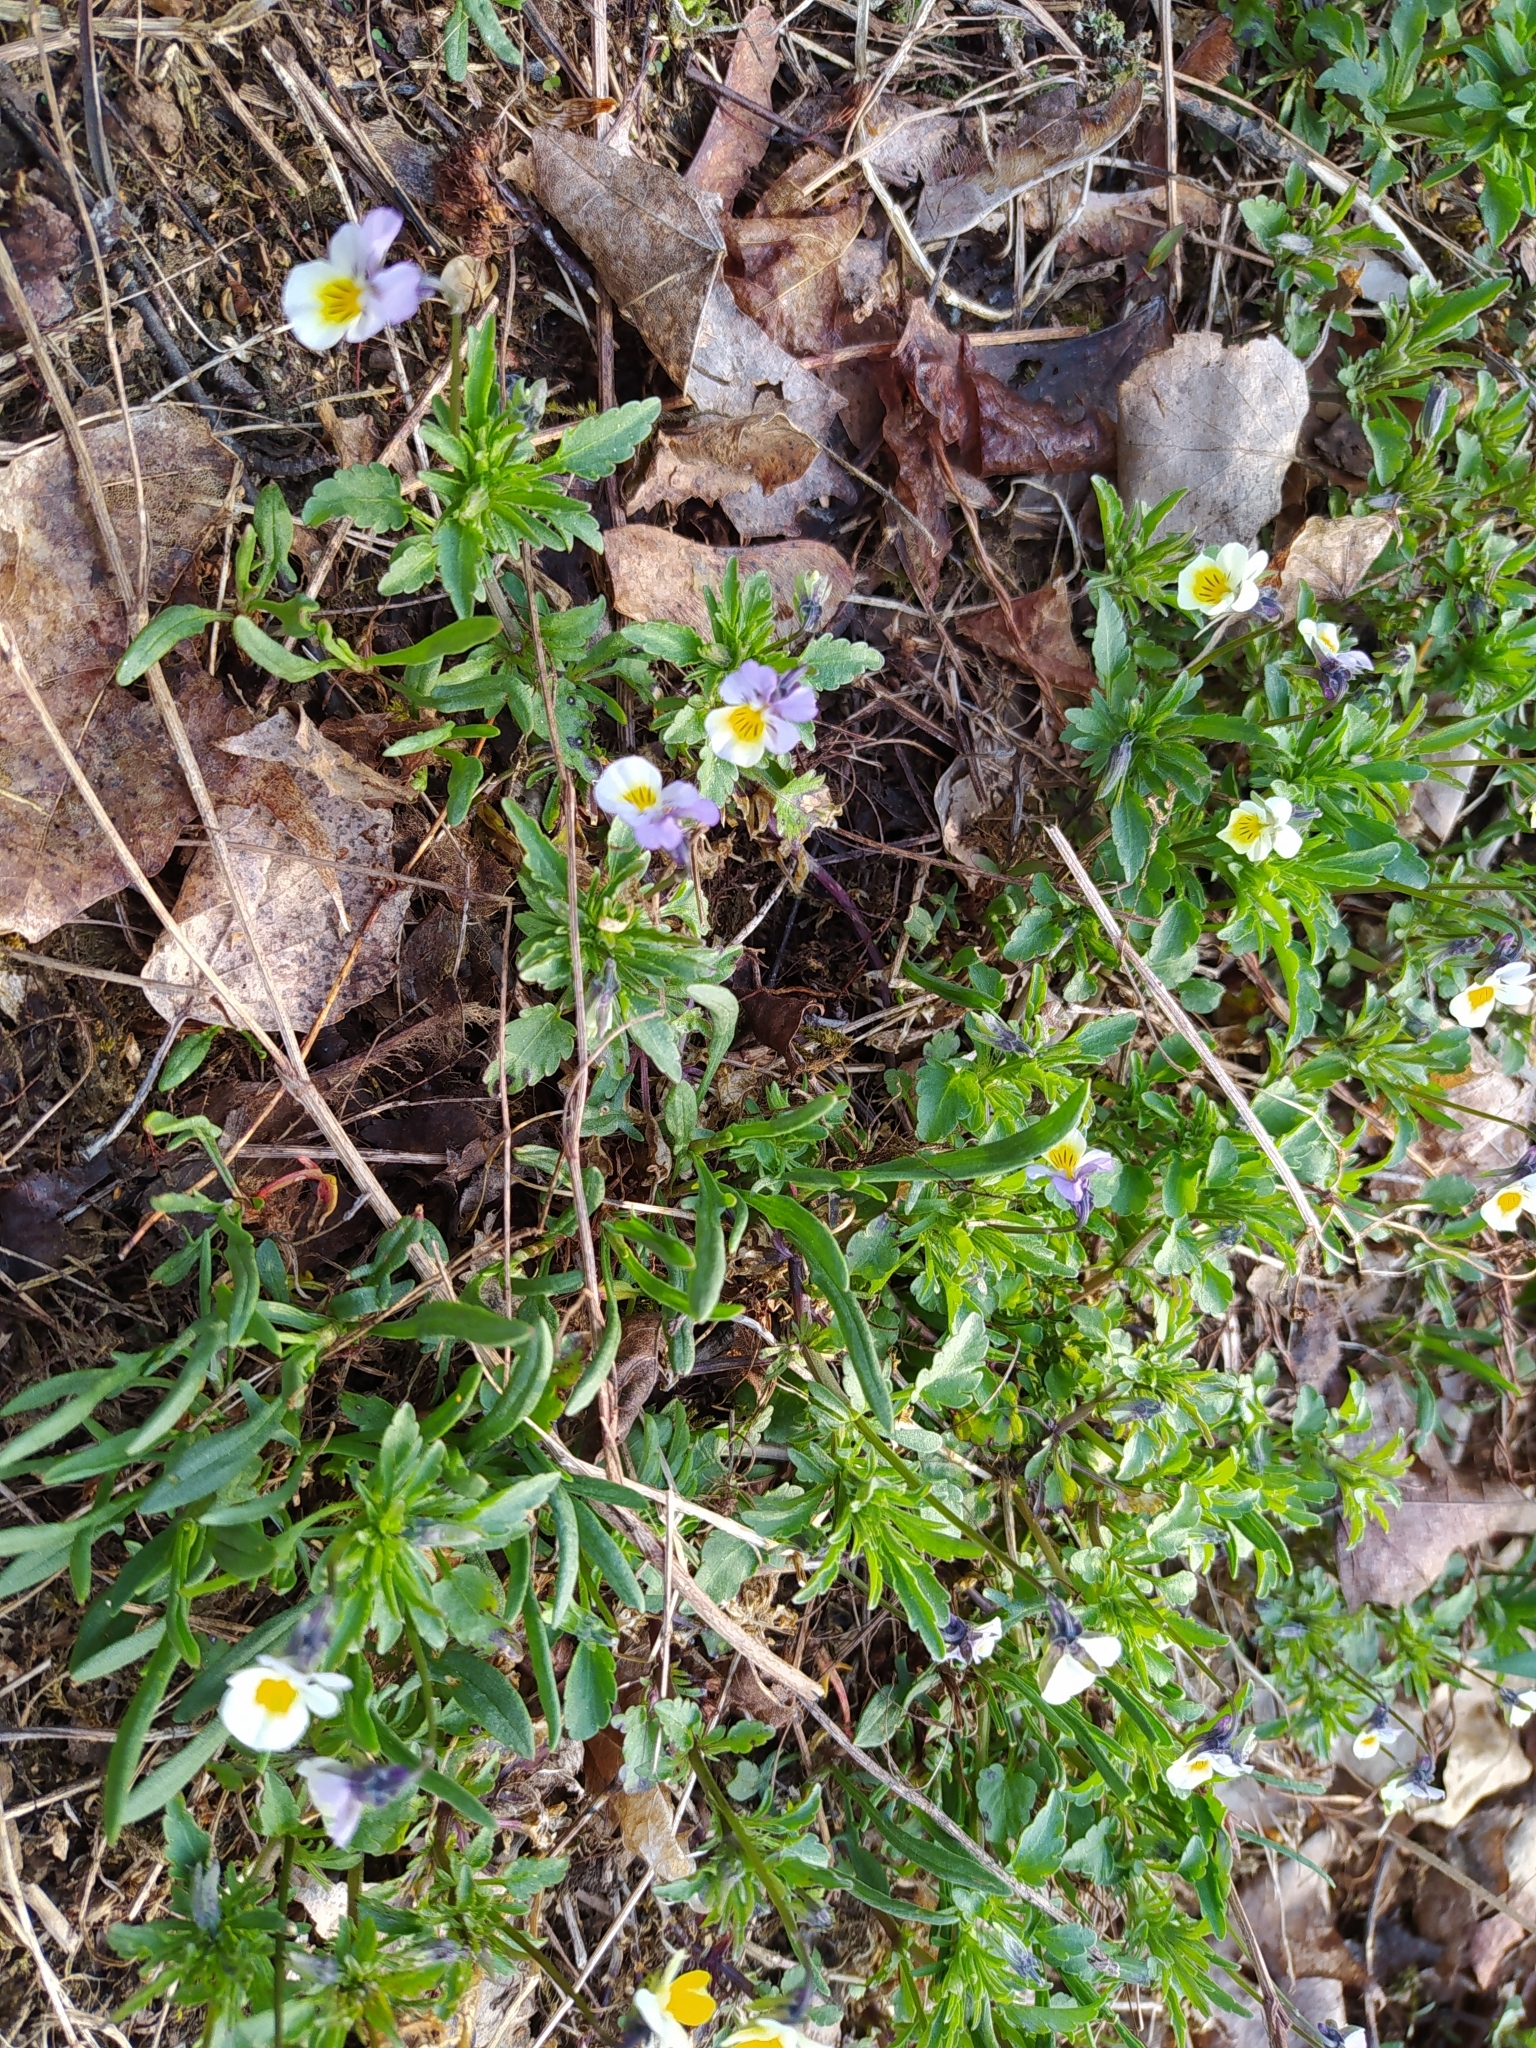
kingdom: Plantae
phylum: Tracheophyta
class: Magnoliopsida
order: Malpighiales
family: Violaceae
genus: Viola
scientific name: Viola tricolor
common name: Pansy
